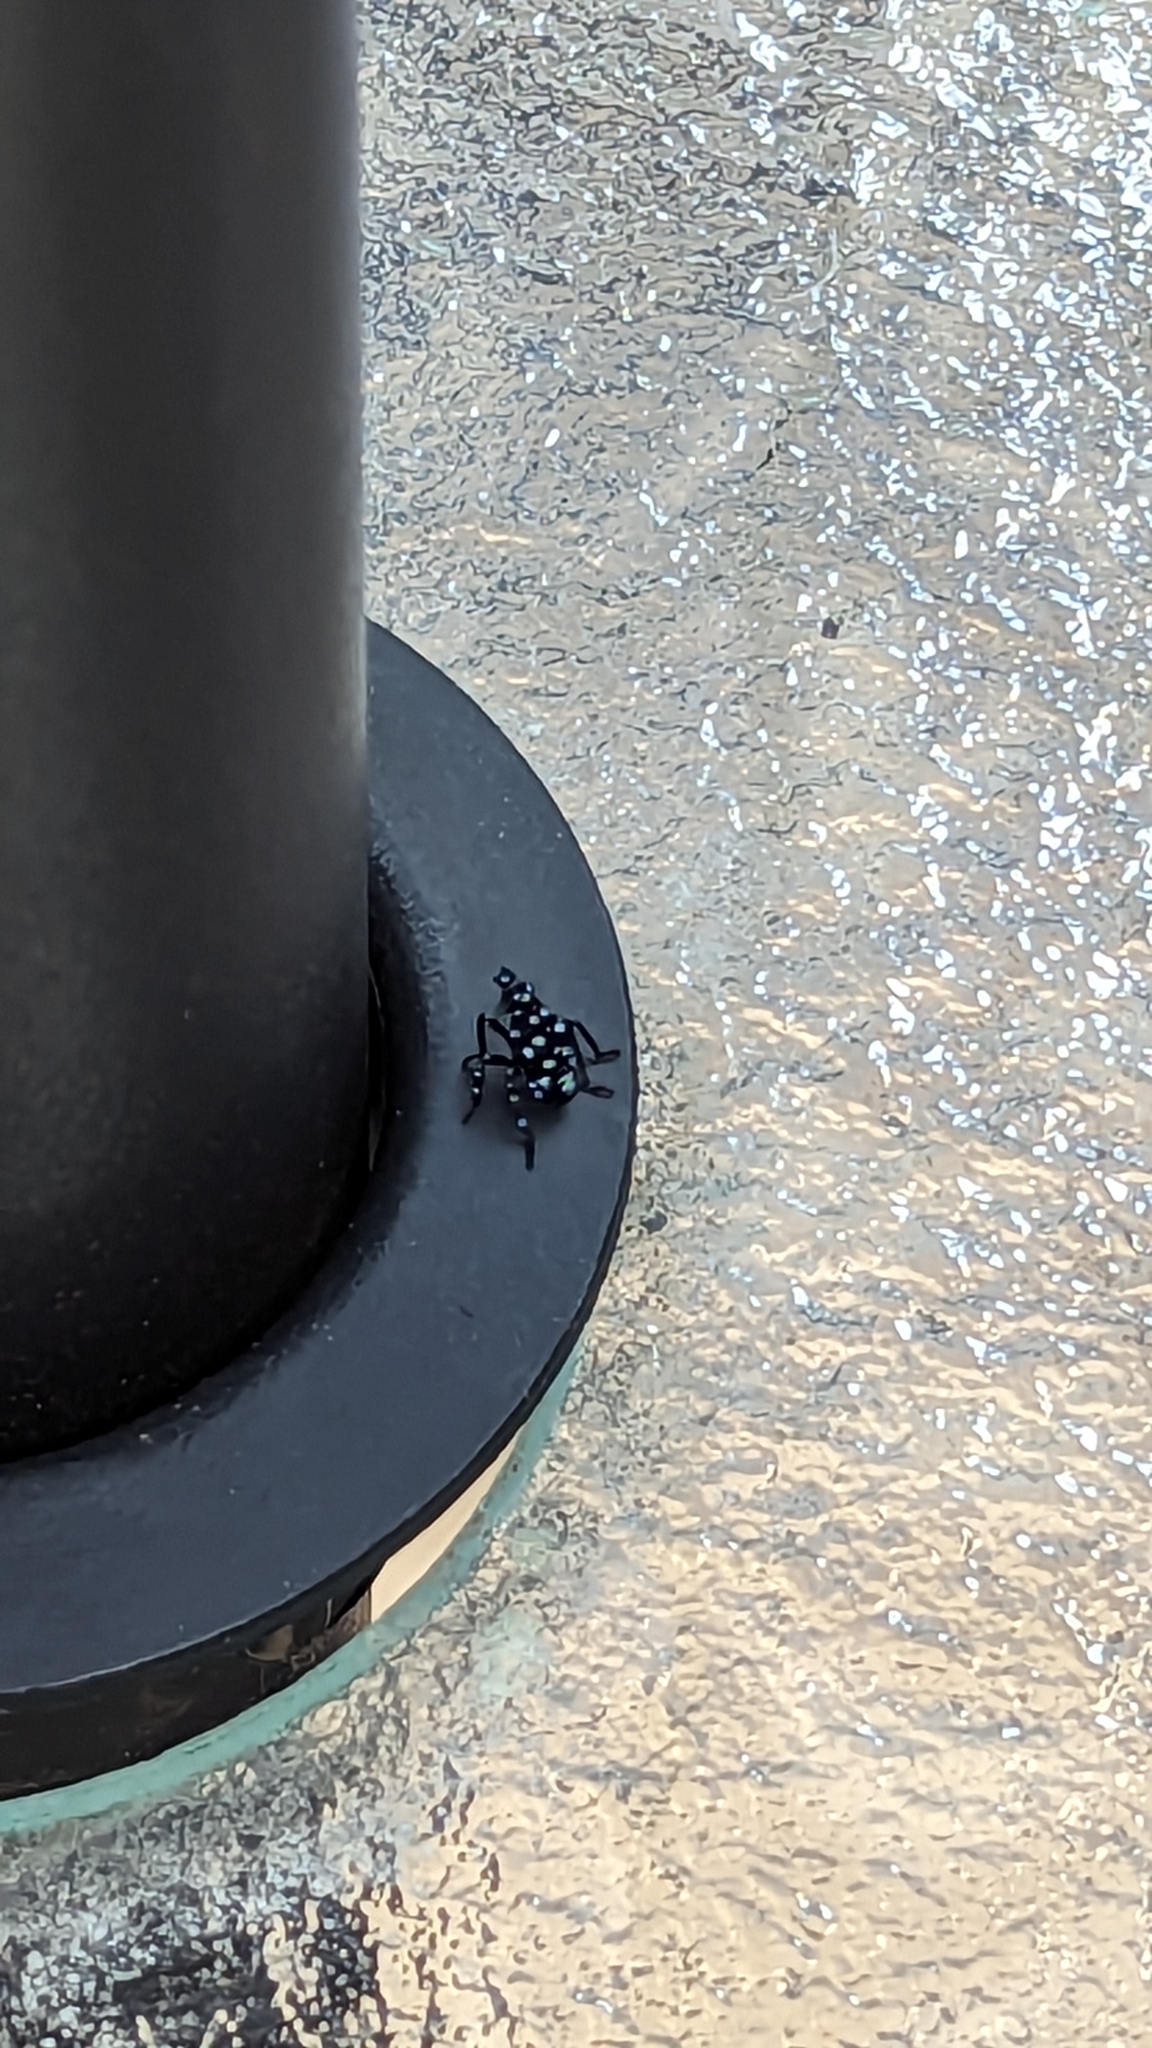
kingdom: Animalia
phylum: Arthropoda
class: Insecta
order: Hemiptera
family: Fulgoridae
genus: Lycorma
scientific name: Lycorma delicatula
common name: Spotted lanternfly
